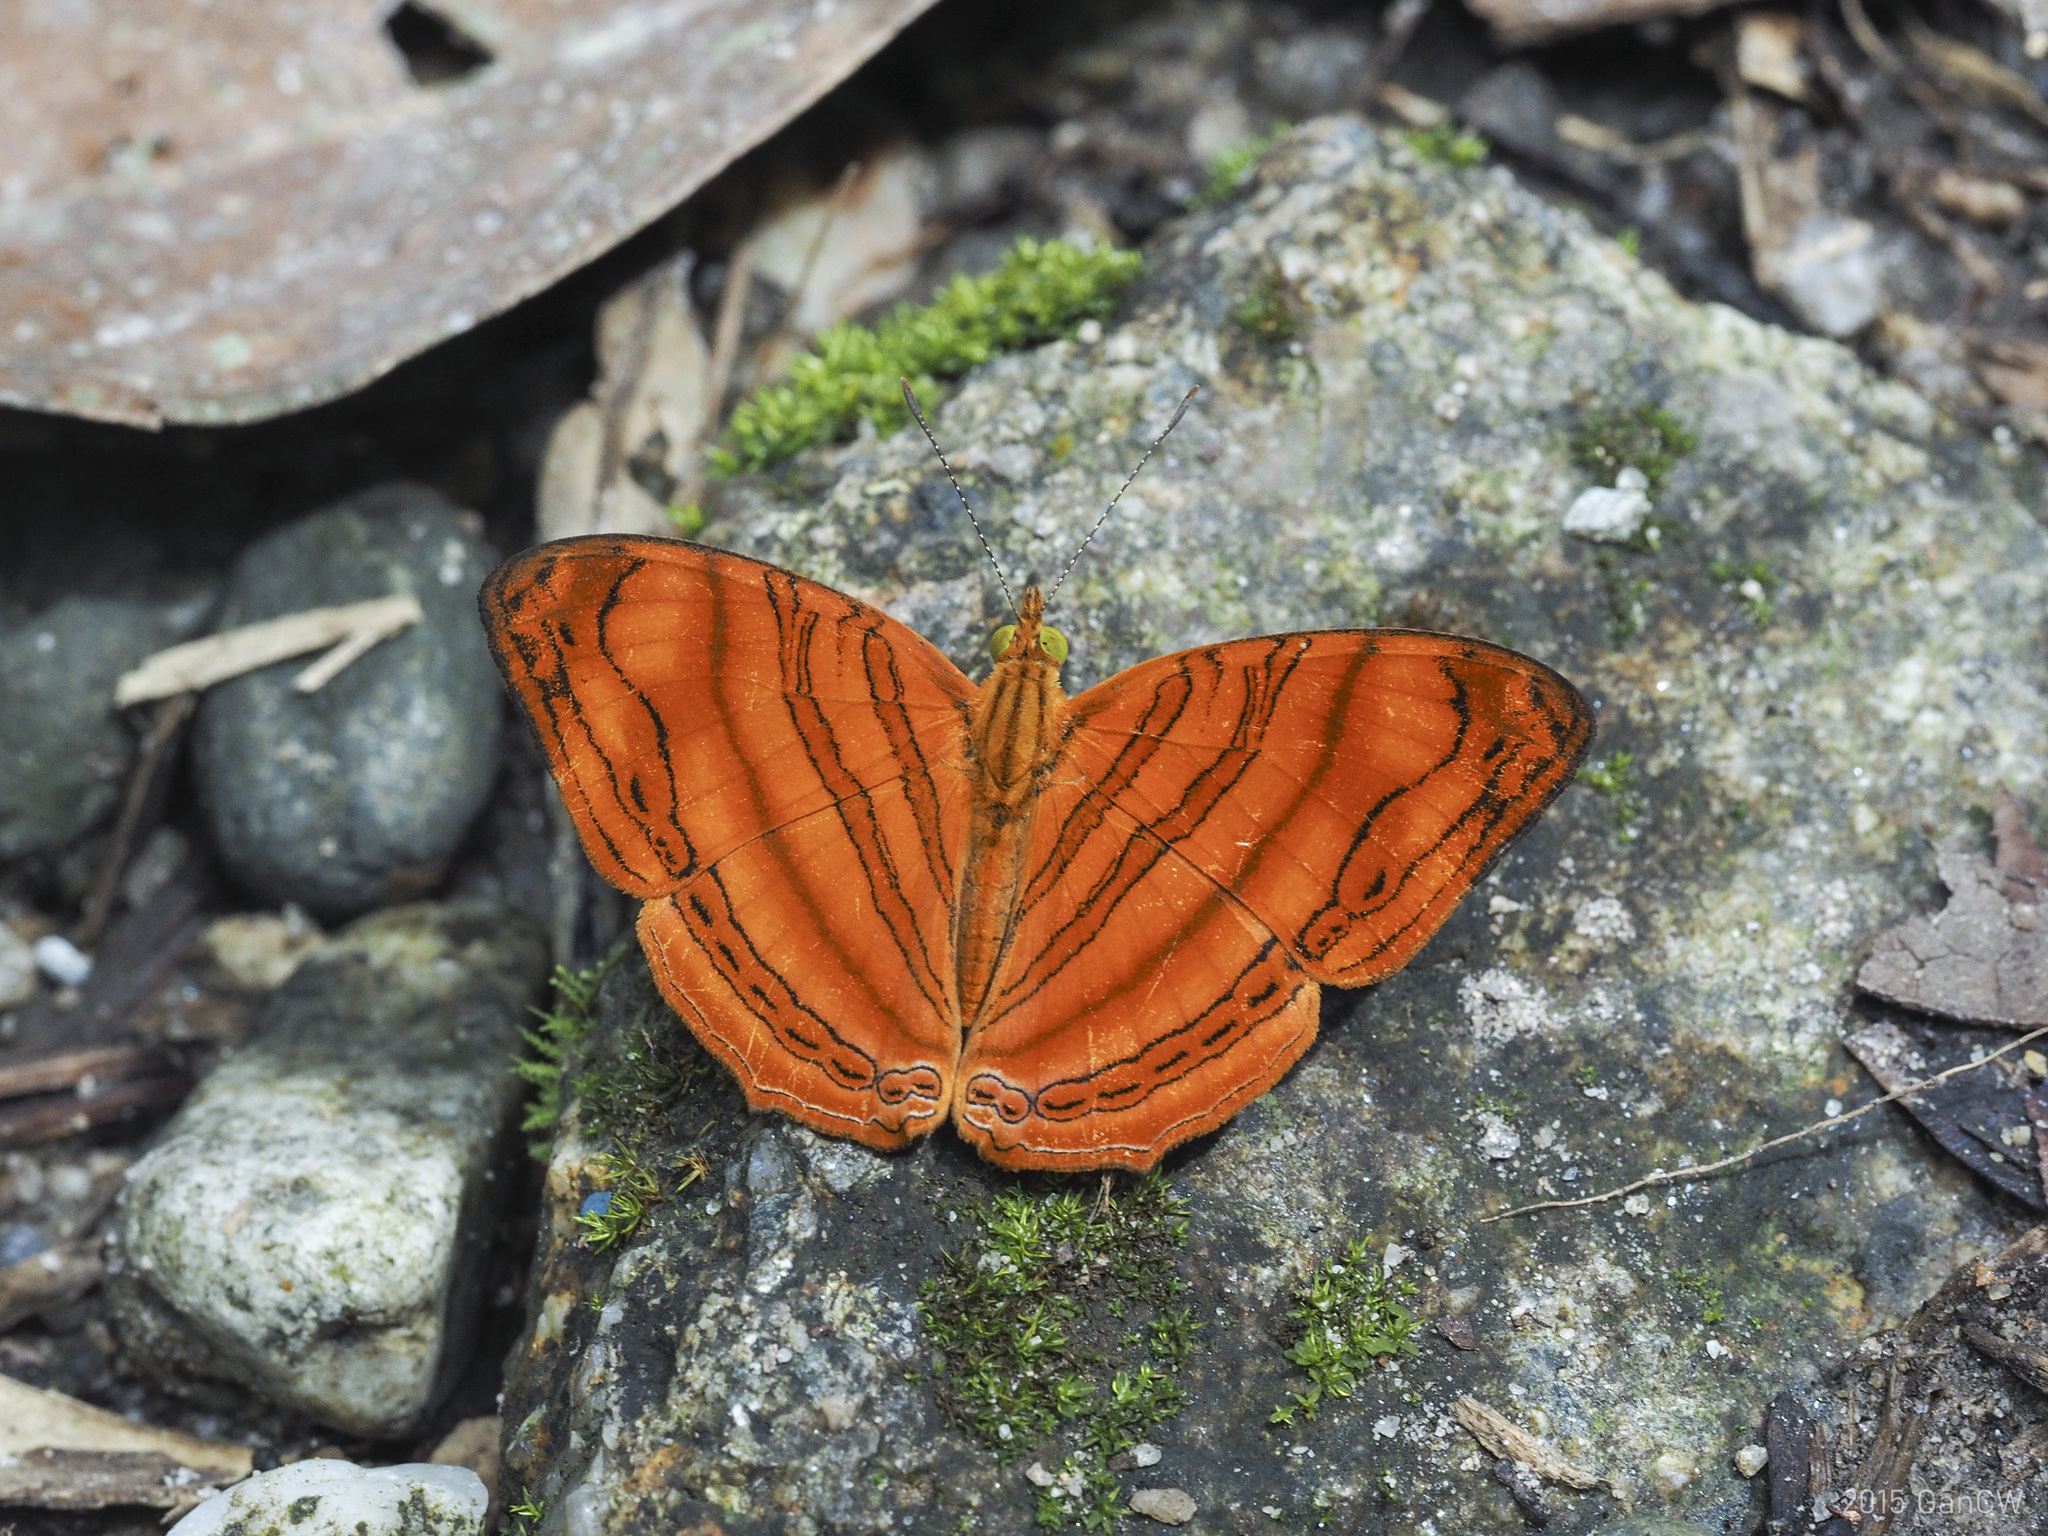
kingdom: Animalia
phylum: Arthropoda
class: Insecta
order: Lepidoptera
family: Nymphalidae
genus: Chersonesia
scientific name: Chersonesia rahria
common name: Wavy maplet
